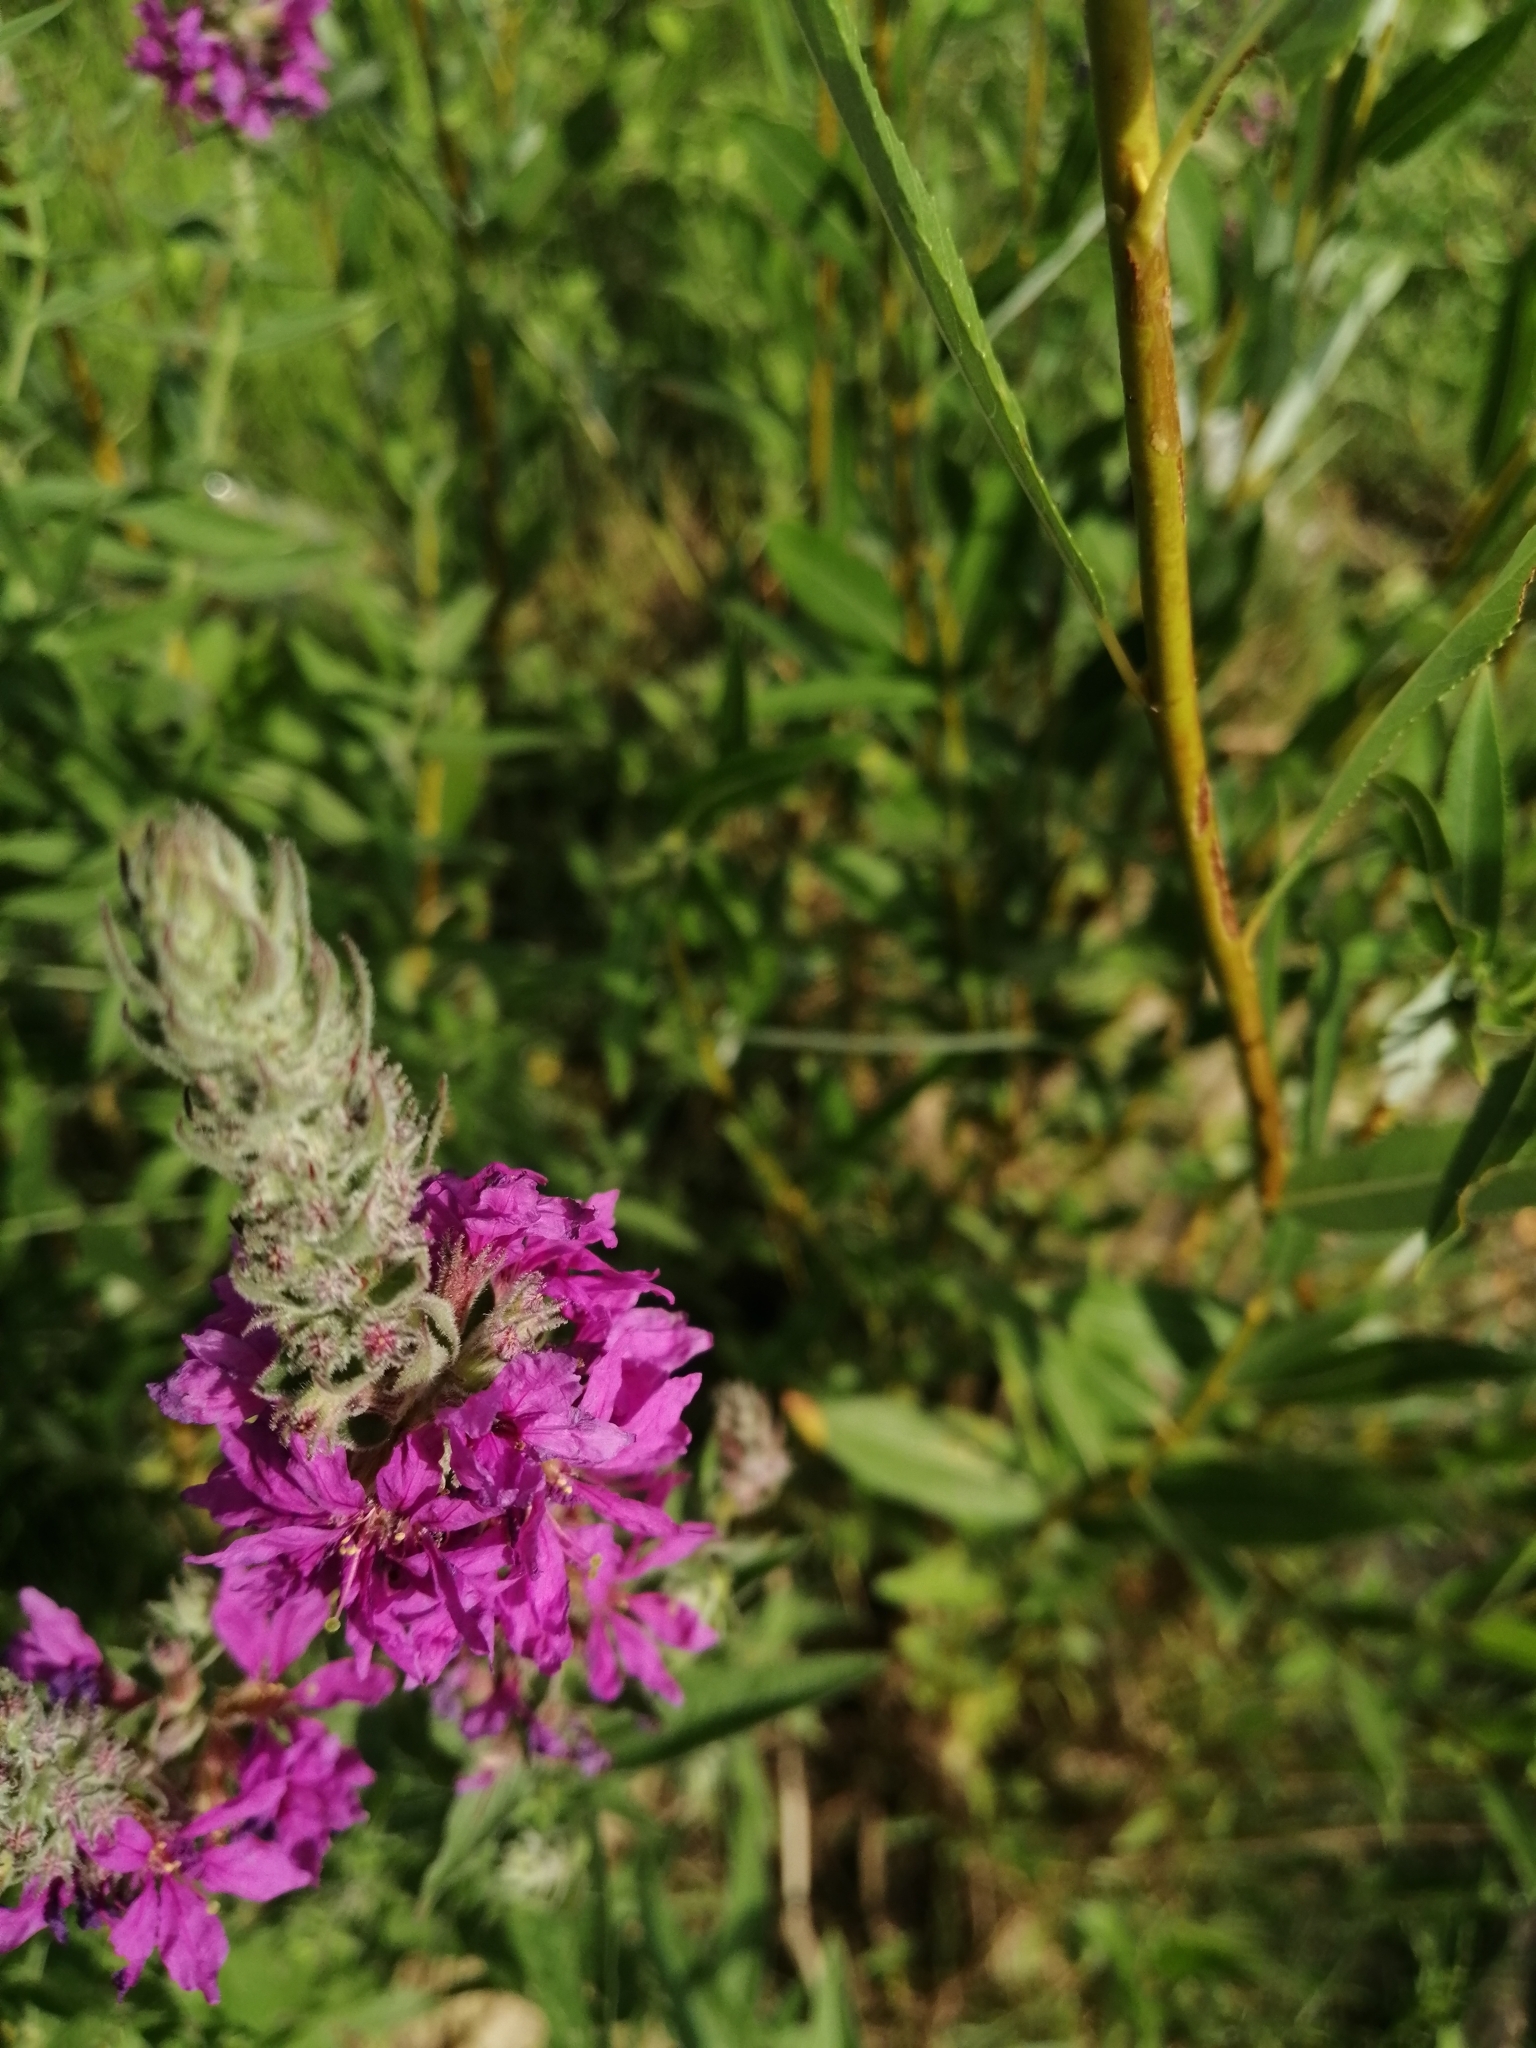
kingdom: Plantae
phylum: Tracheophyta
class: Magnoliopsida
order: Myrtales
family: Lythraceae
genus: Lythrum
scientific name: Lythrum salicaria
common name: Purple loosestrife
